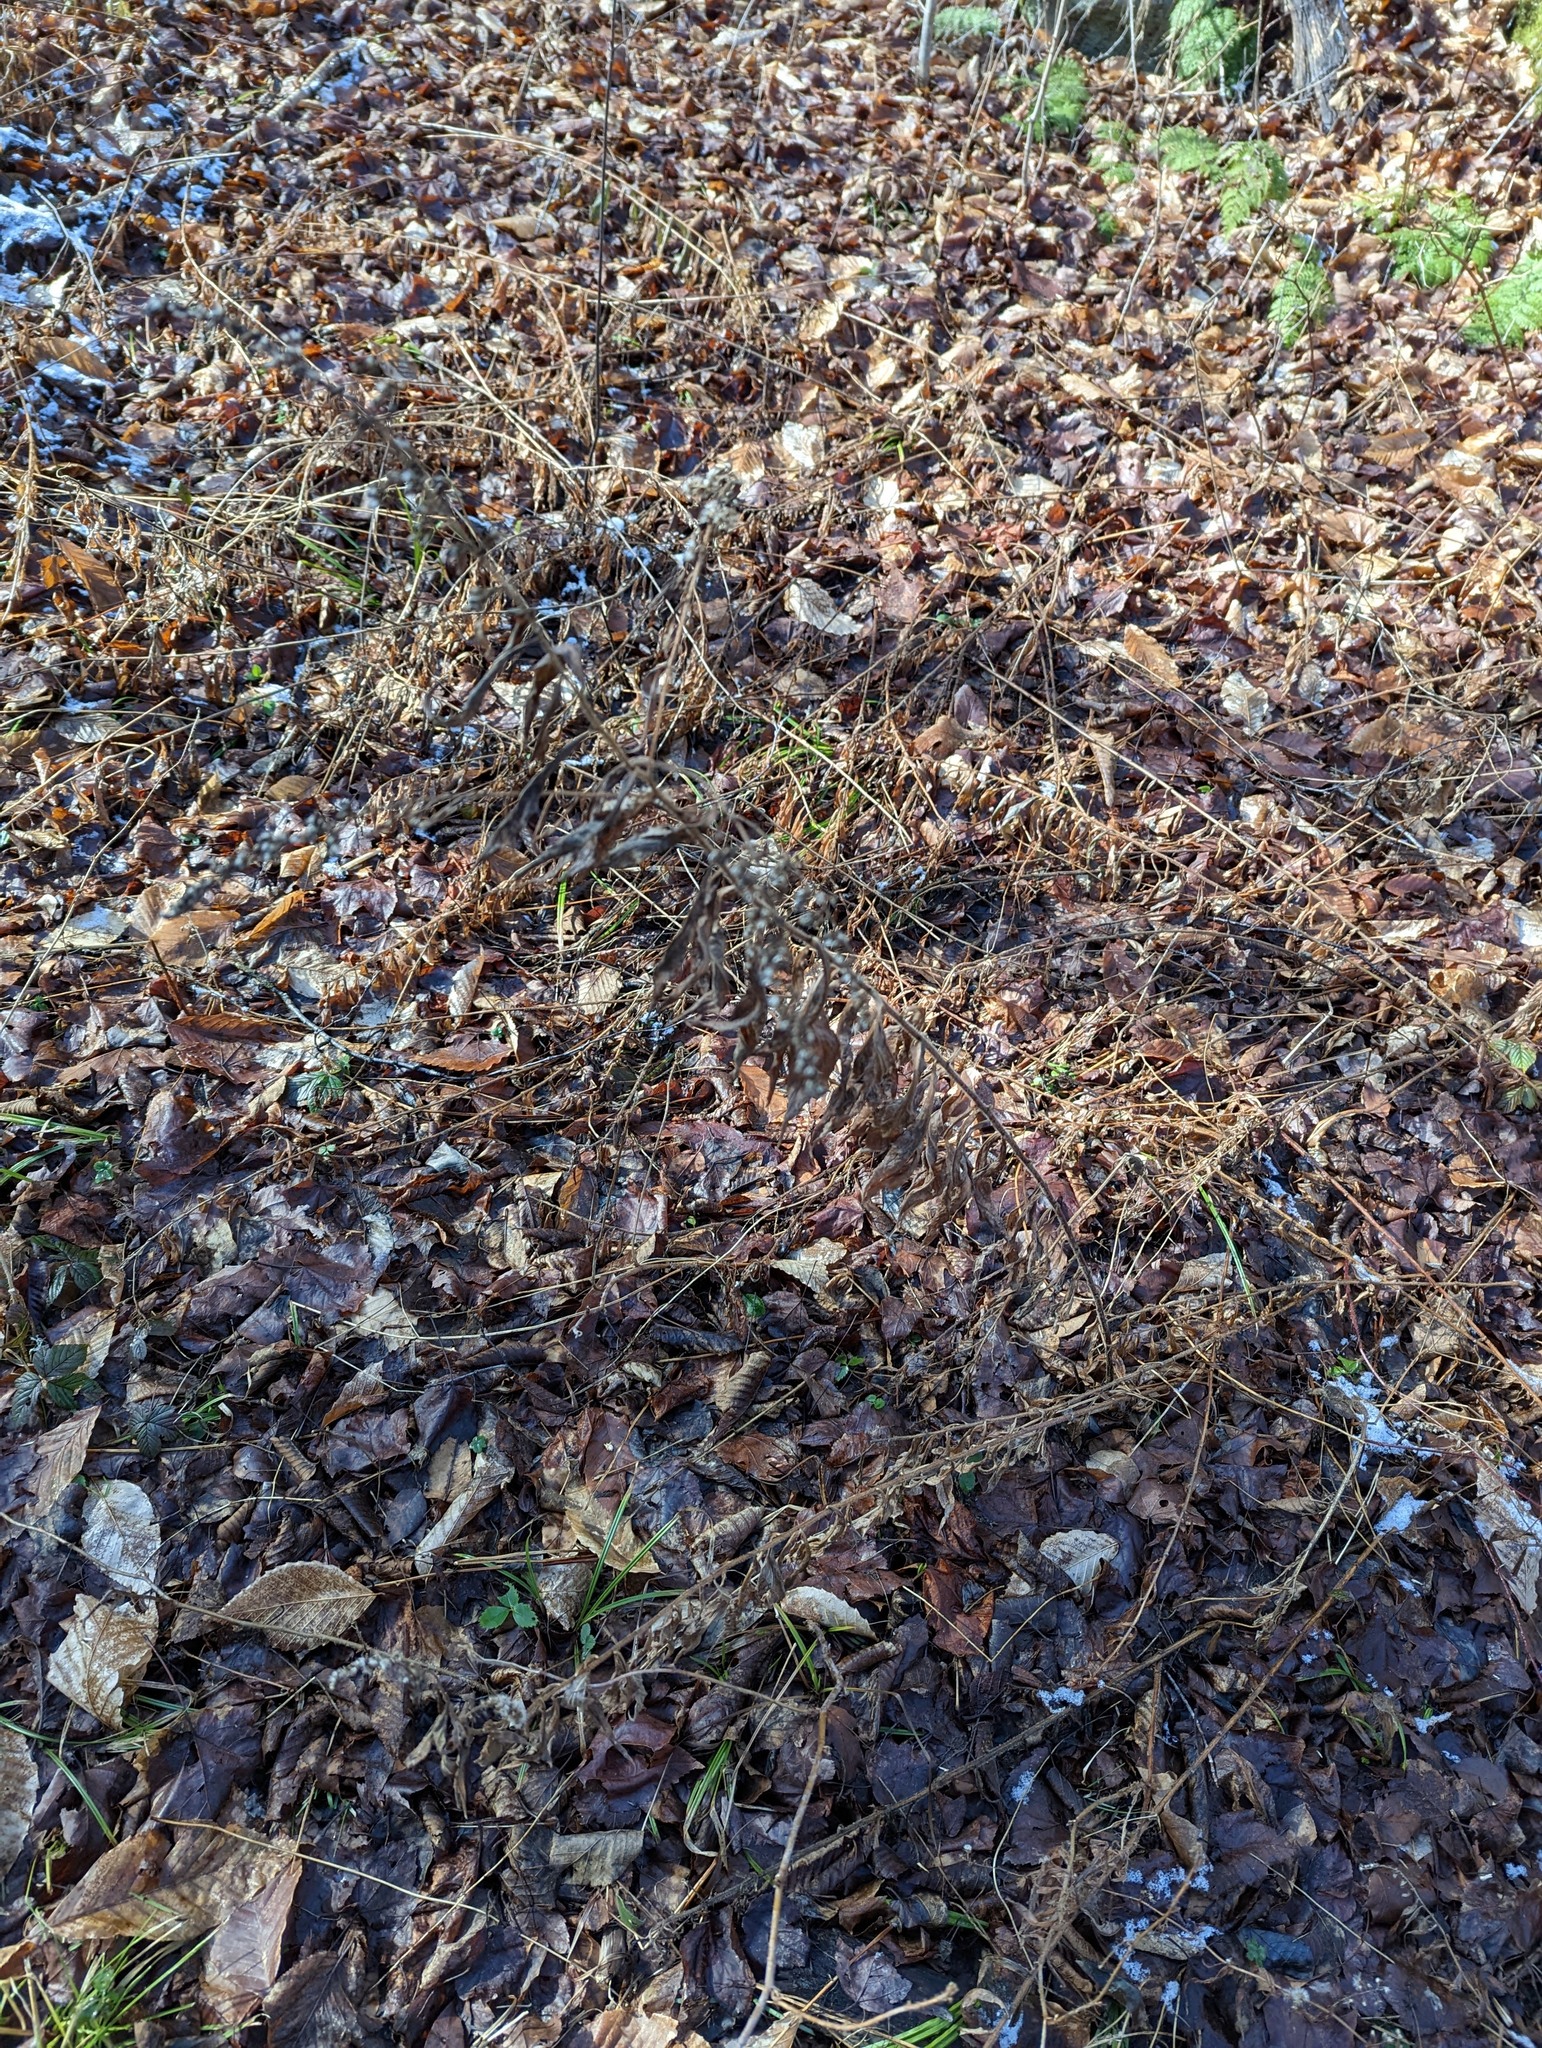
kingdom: Plantae
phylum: Tracheophyta
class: Magnoliopsida
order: Asterales
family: Asteraceae
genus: Solidago
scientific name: Solidago bicolor
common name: Silverrod
